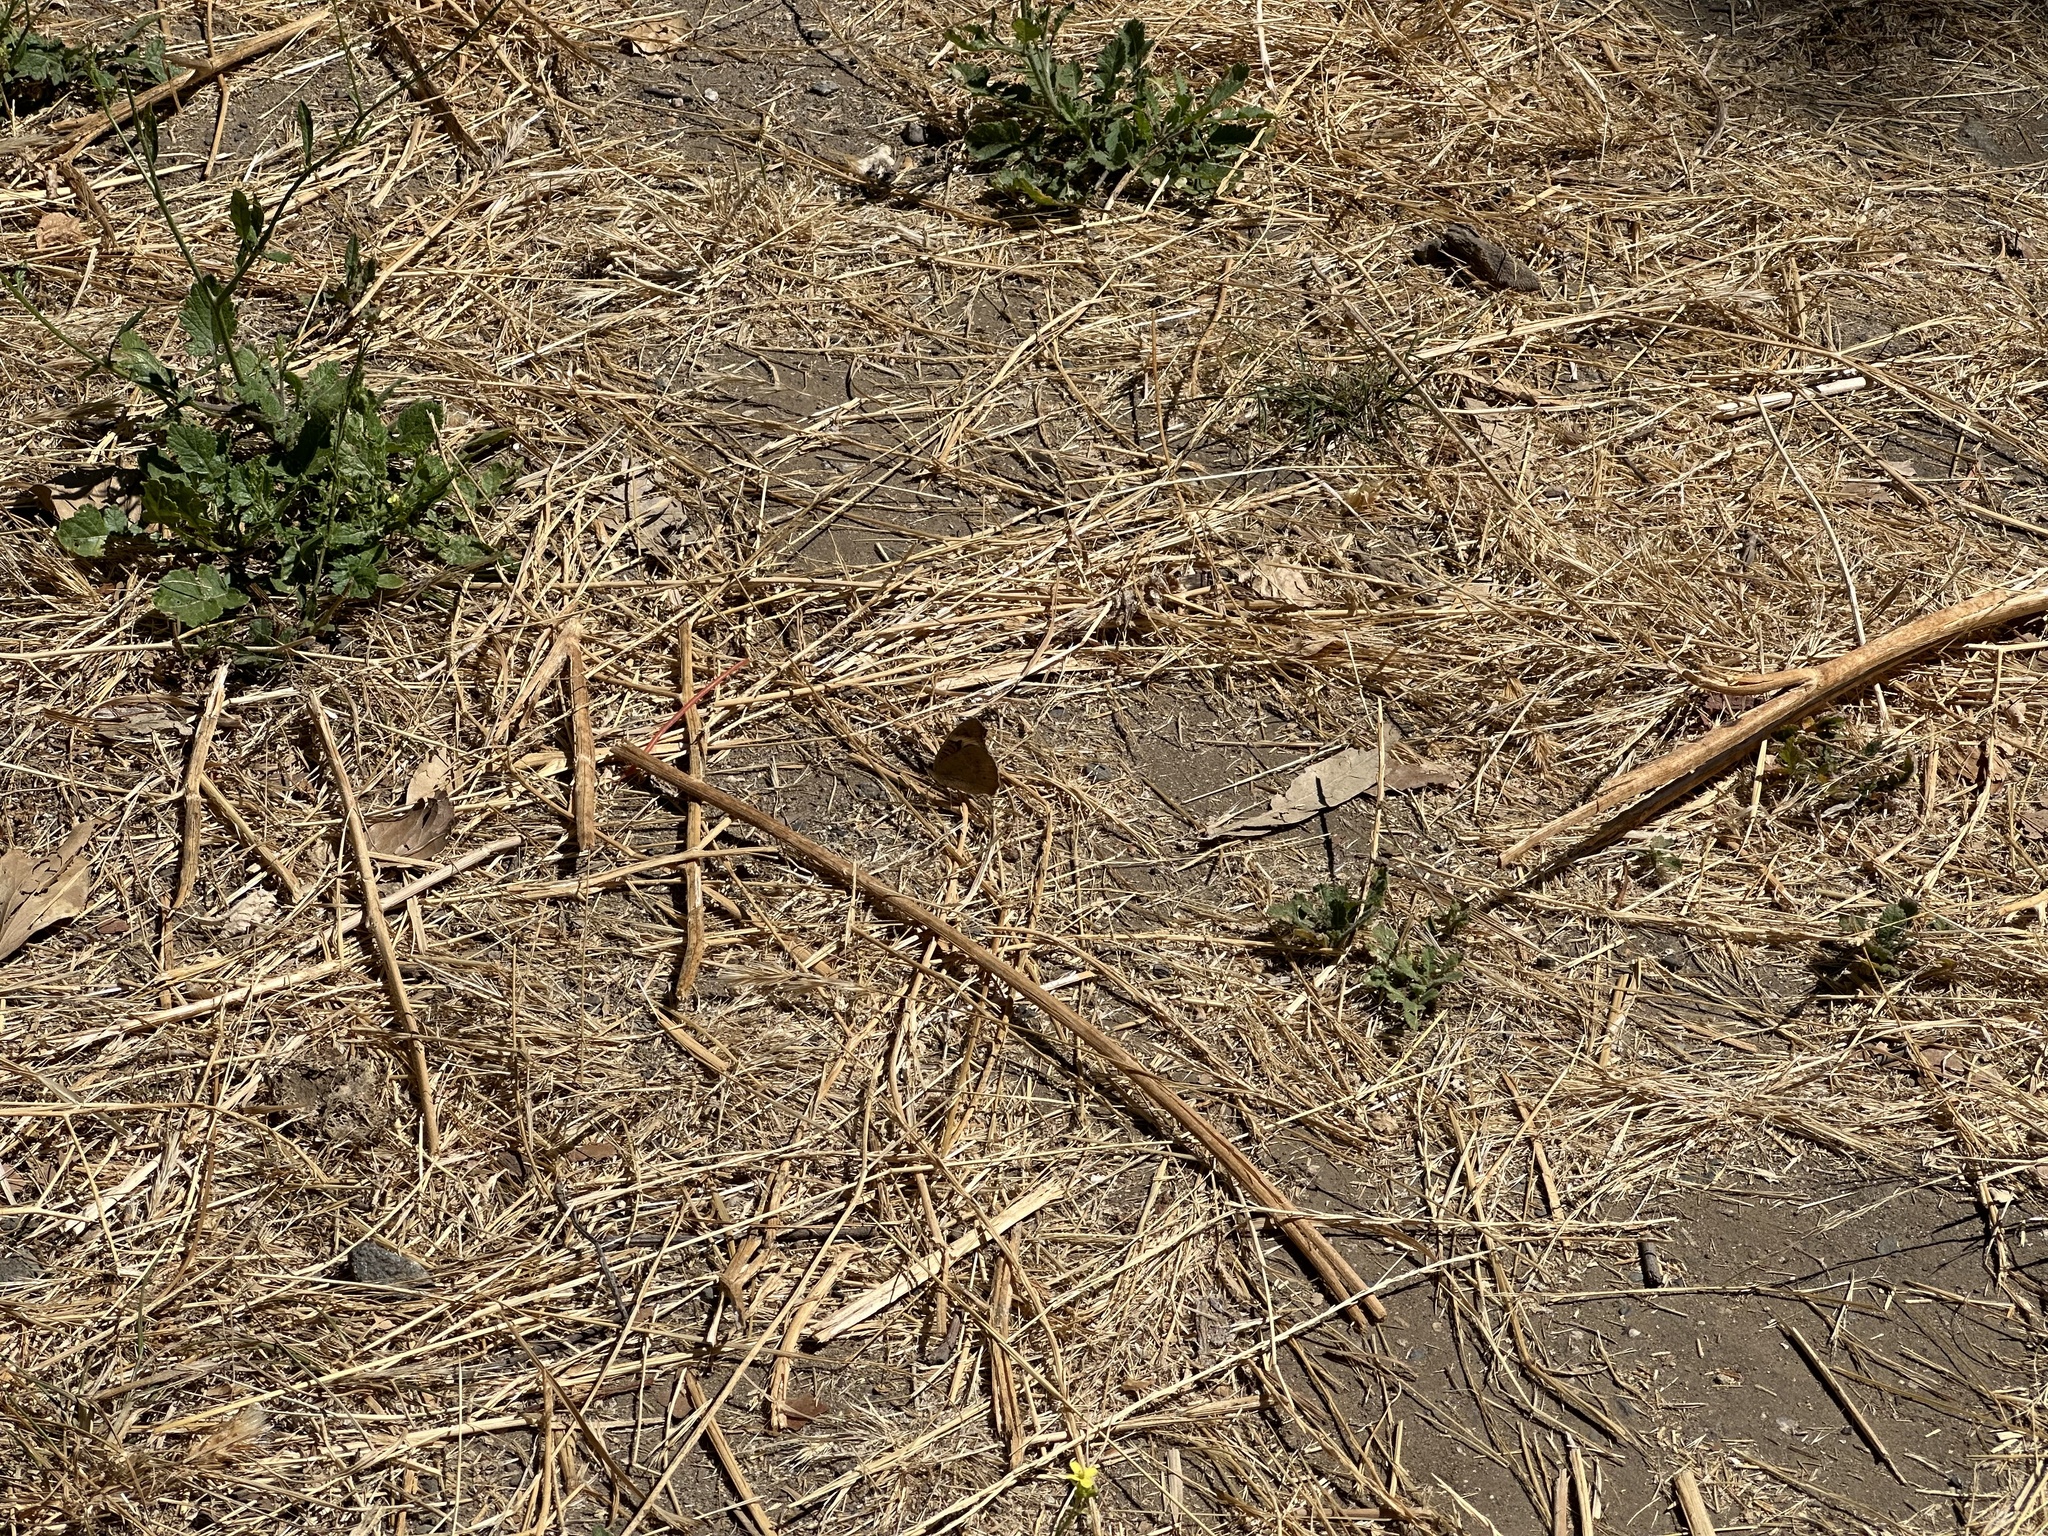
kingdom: Animalia
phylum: Arthropoda
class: Insecta
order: Lepidoptera
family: Nymphalidae
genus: Junonia
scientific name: Junonia grisea
